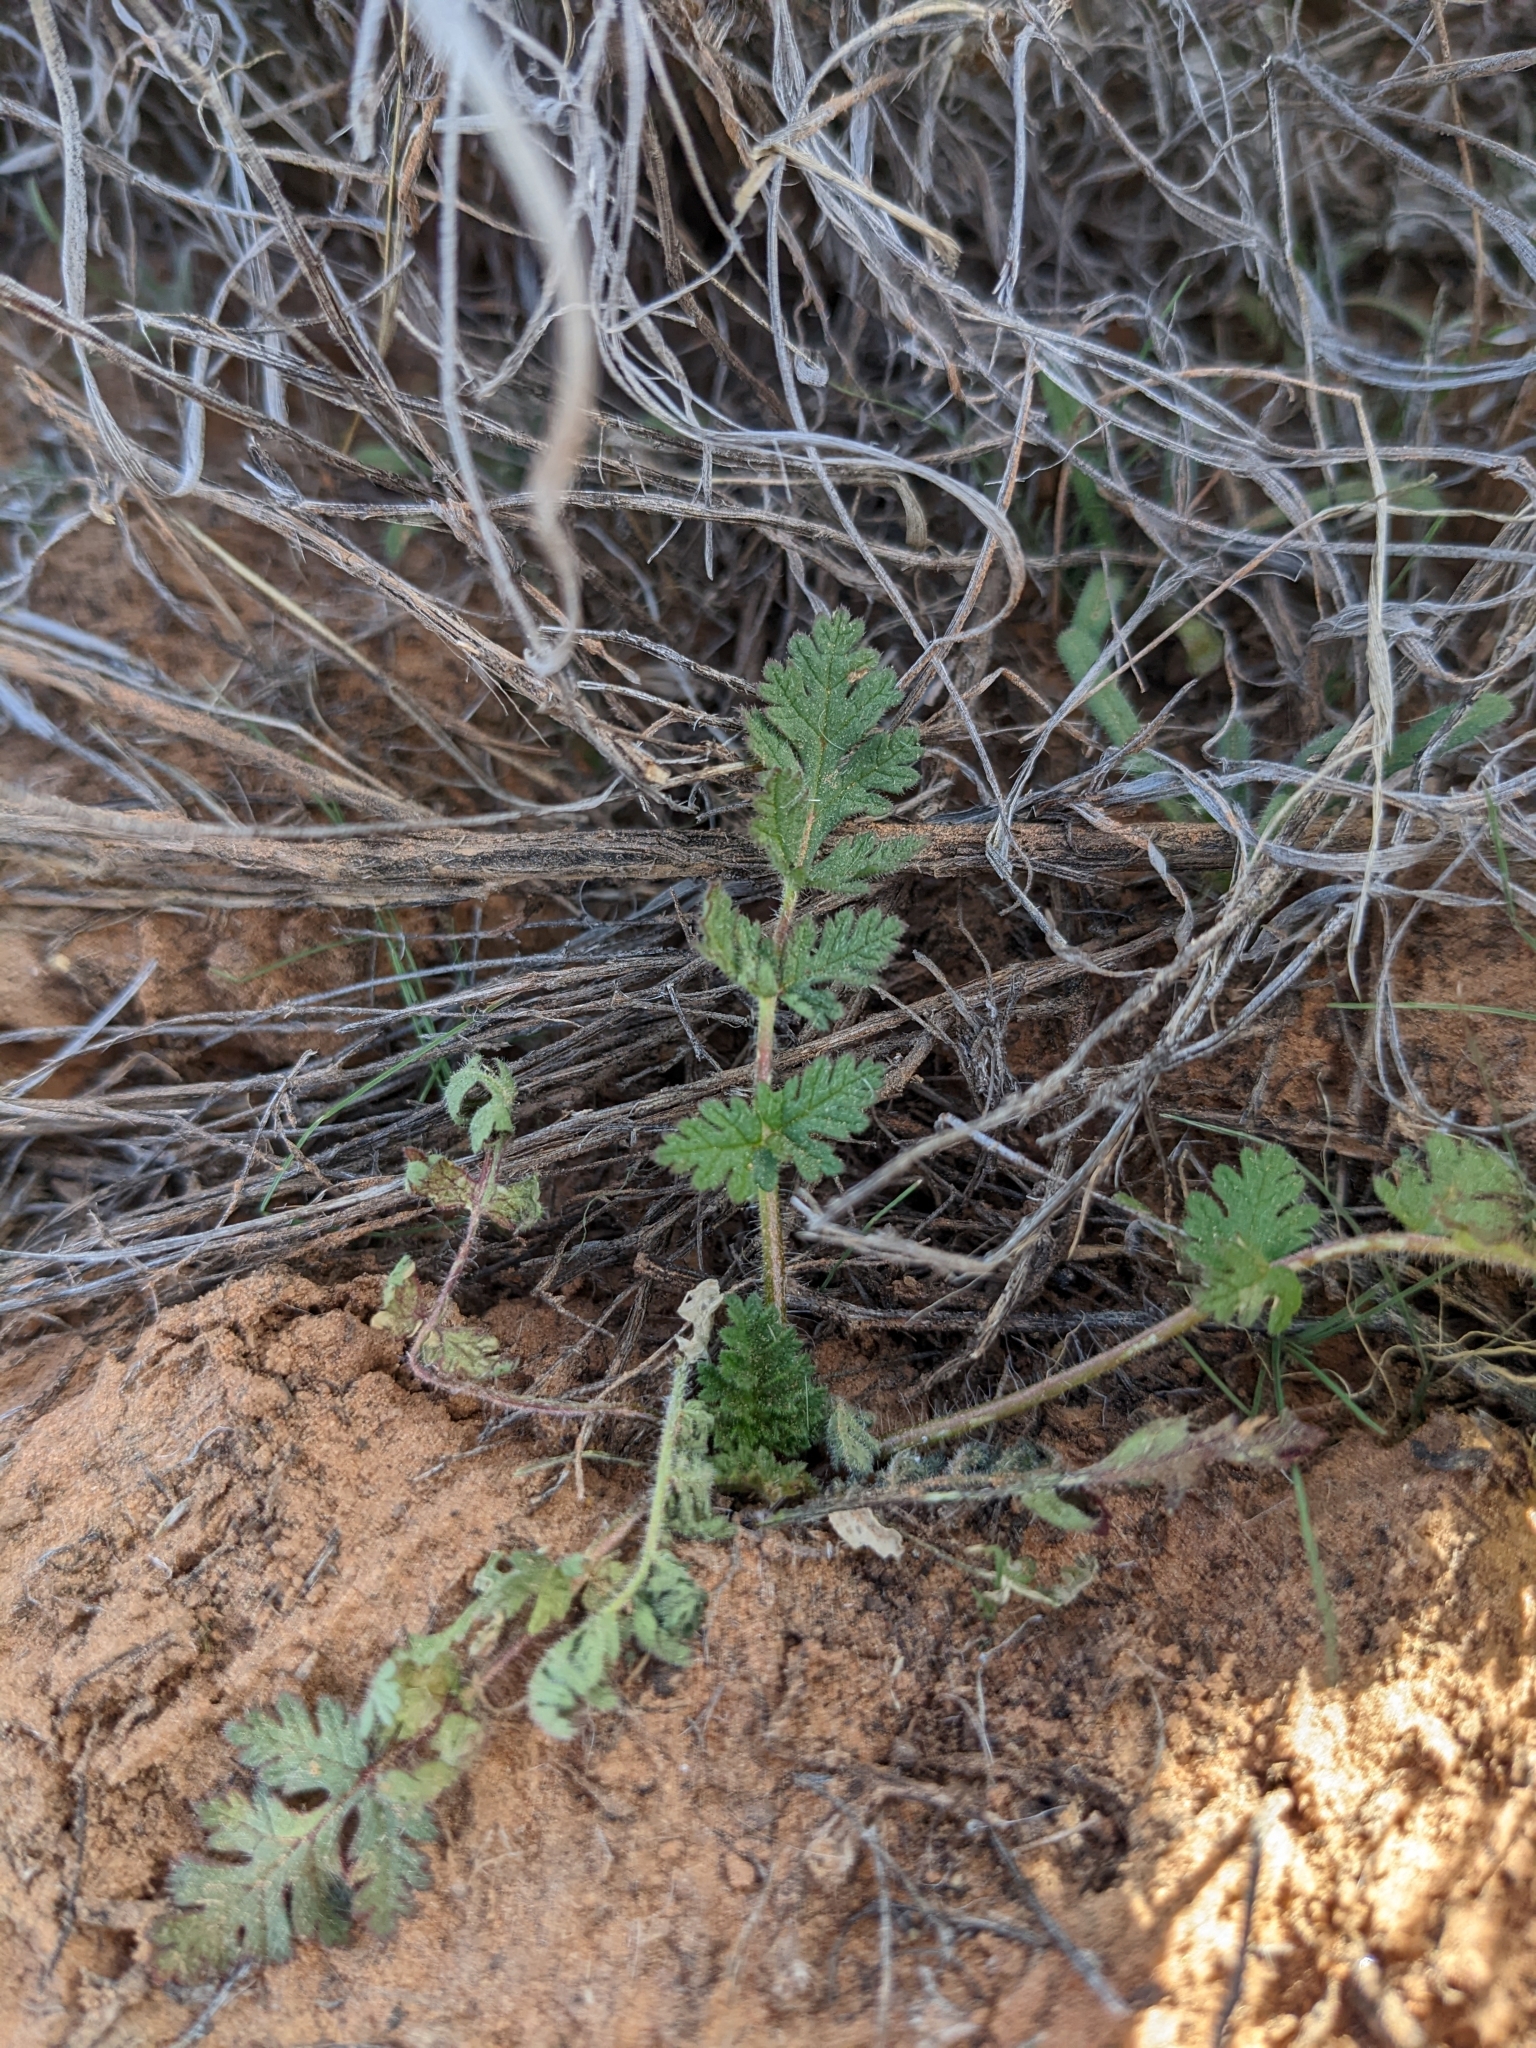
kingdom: Plantae
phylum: Tracheophyta
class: Magnoliopsida
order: Geraniales
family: Geraniaceae
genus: Erodium
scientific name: Erodium cicutarium
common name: Common stork's-bill
